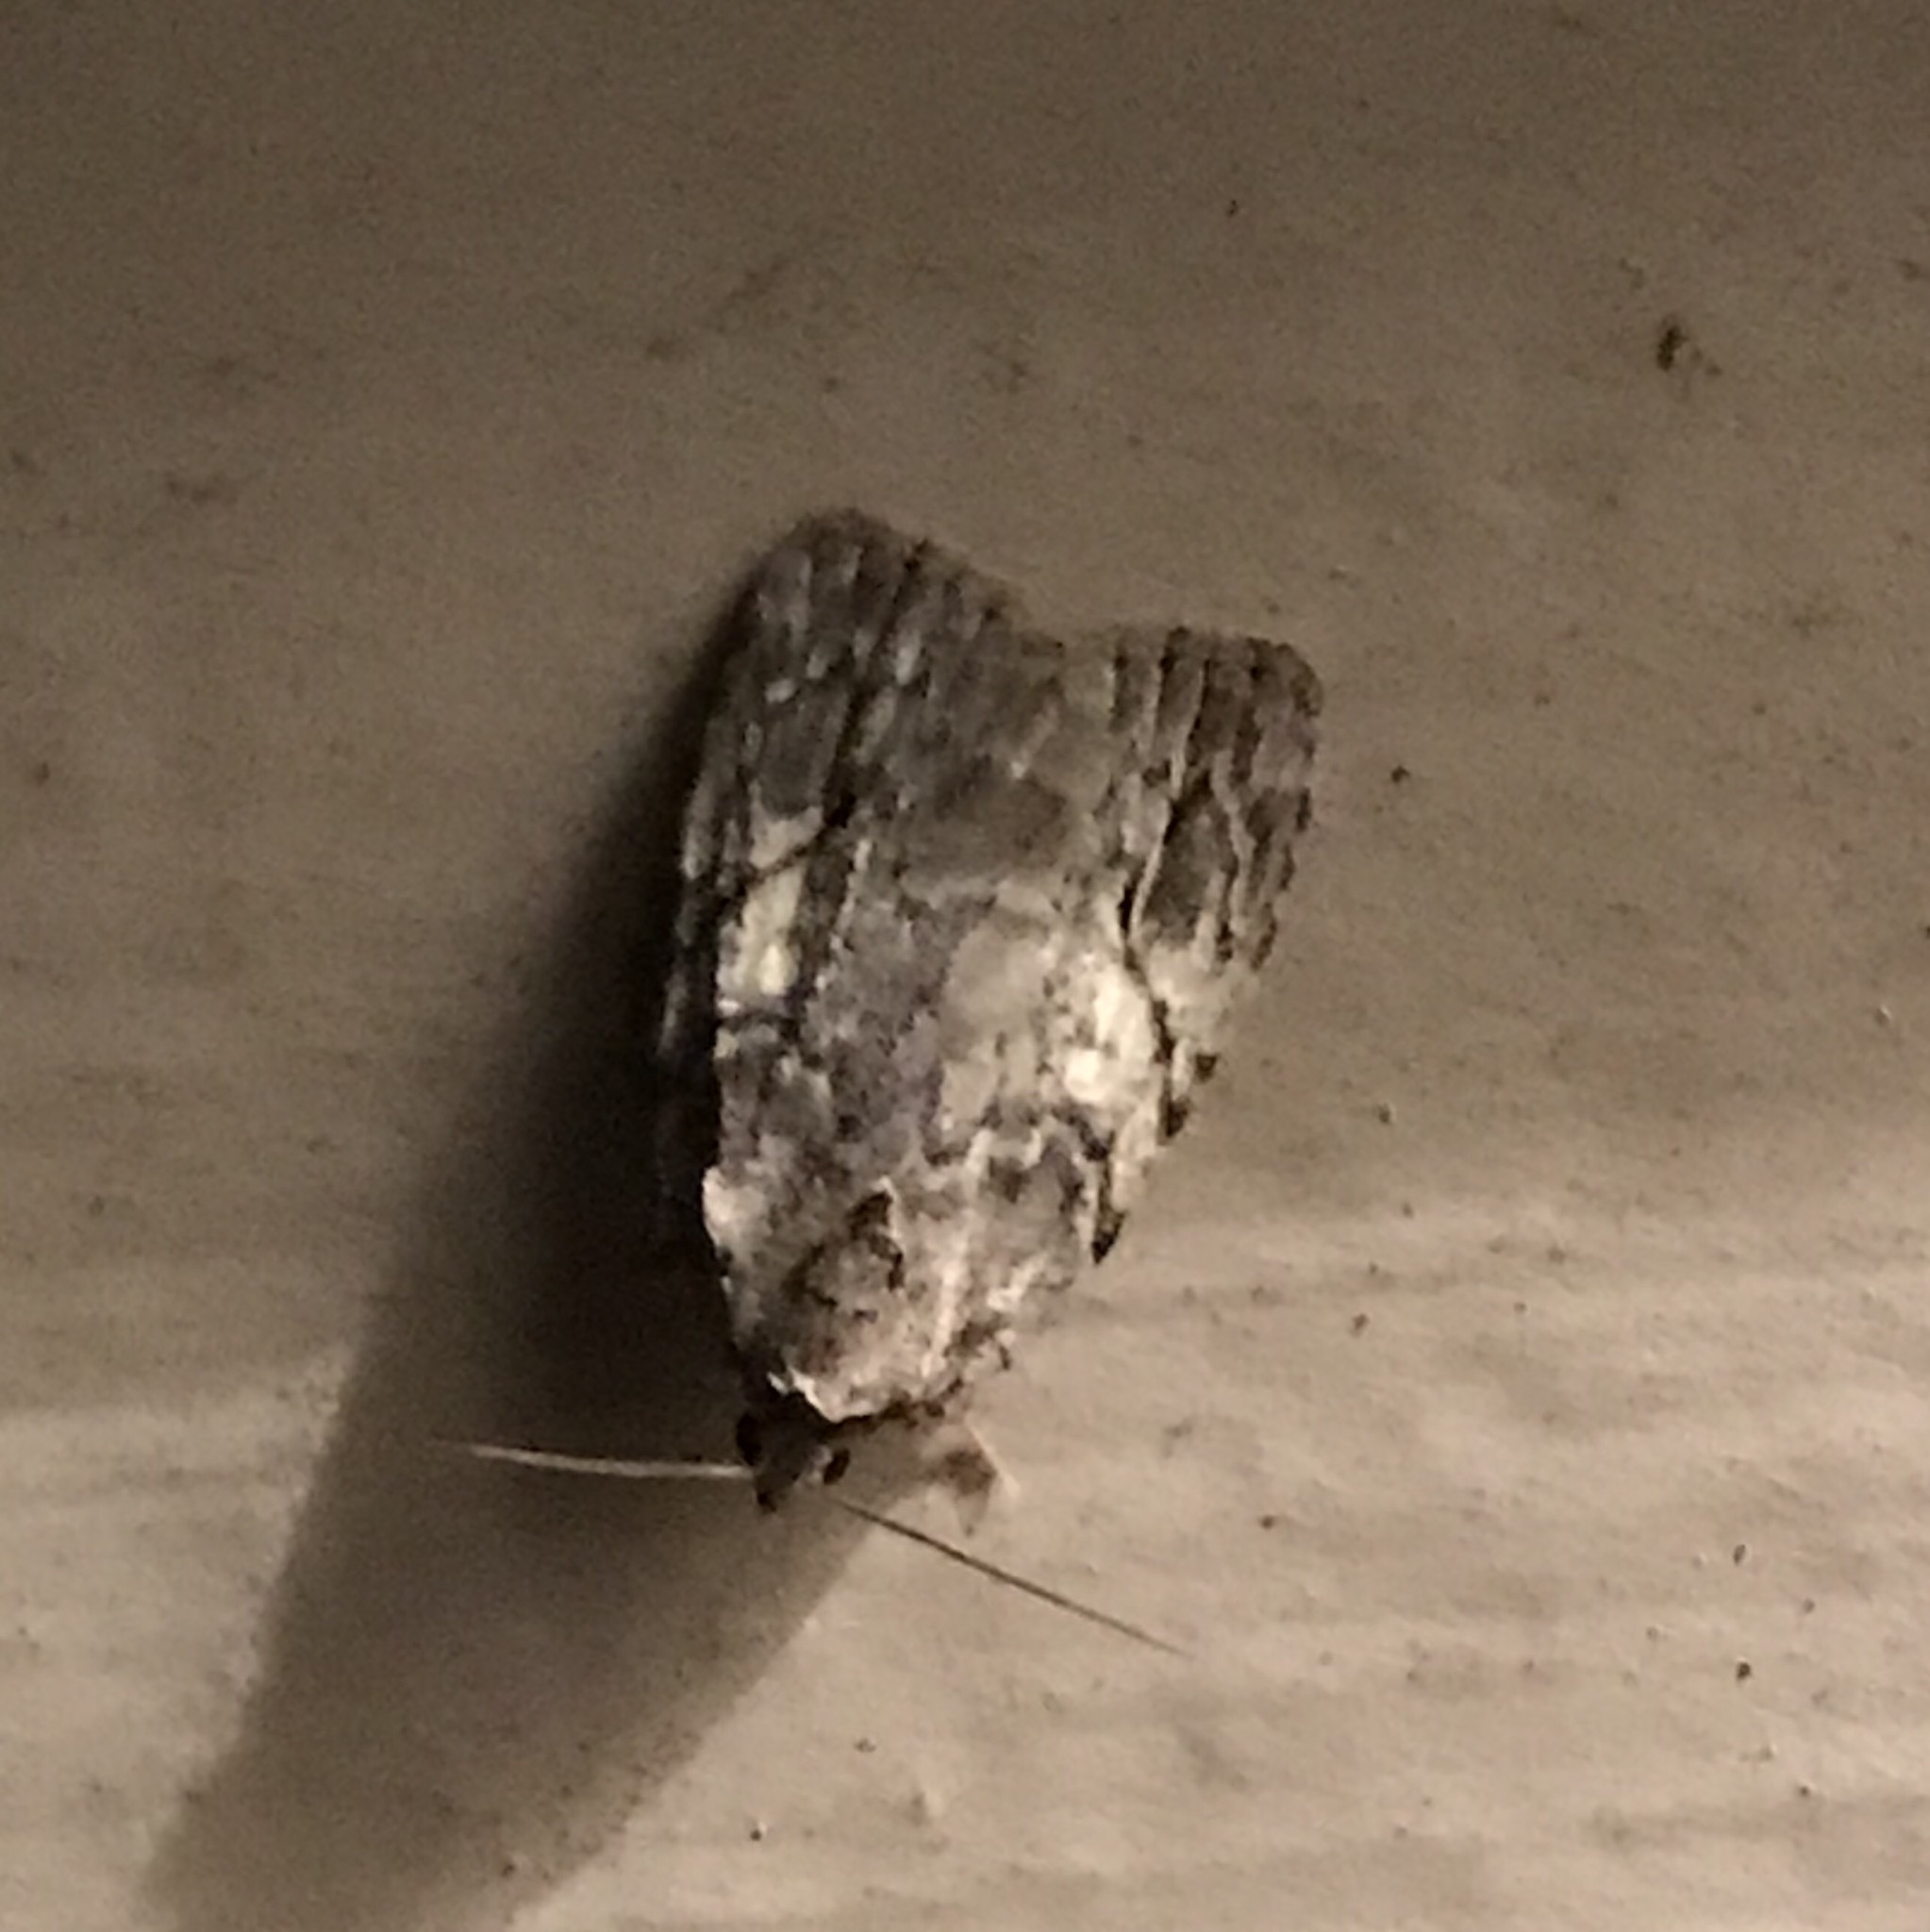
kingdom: Animalia
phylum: Arthropoda
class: Insecta
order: Lepidoptera
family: Noctuidae
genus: Balsa
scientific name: Balsa labecula
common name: White-blotched balsa moth
